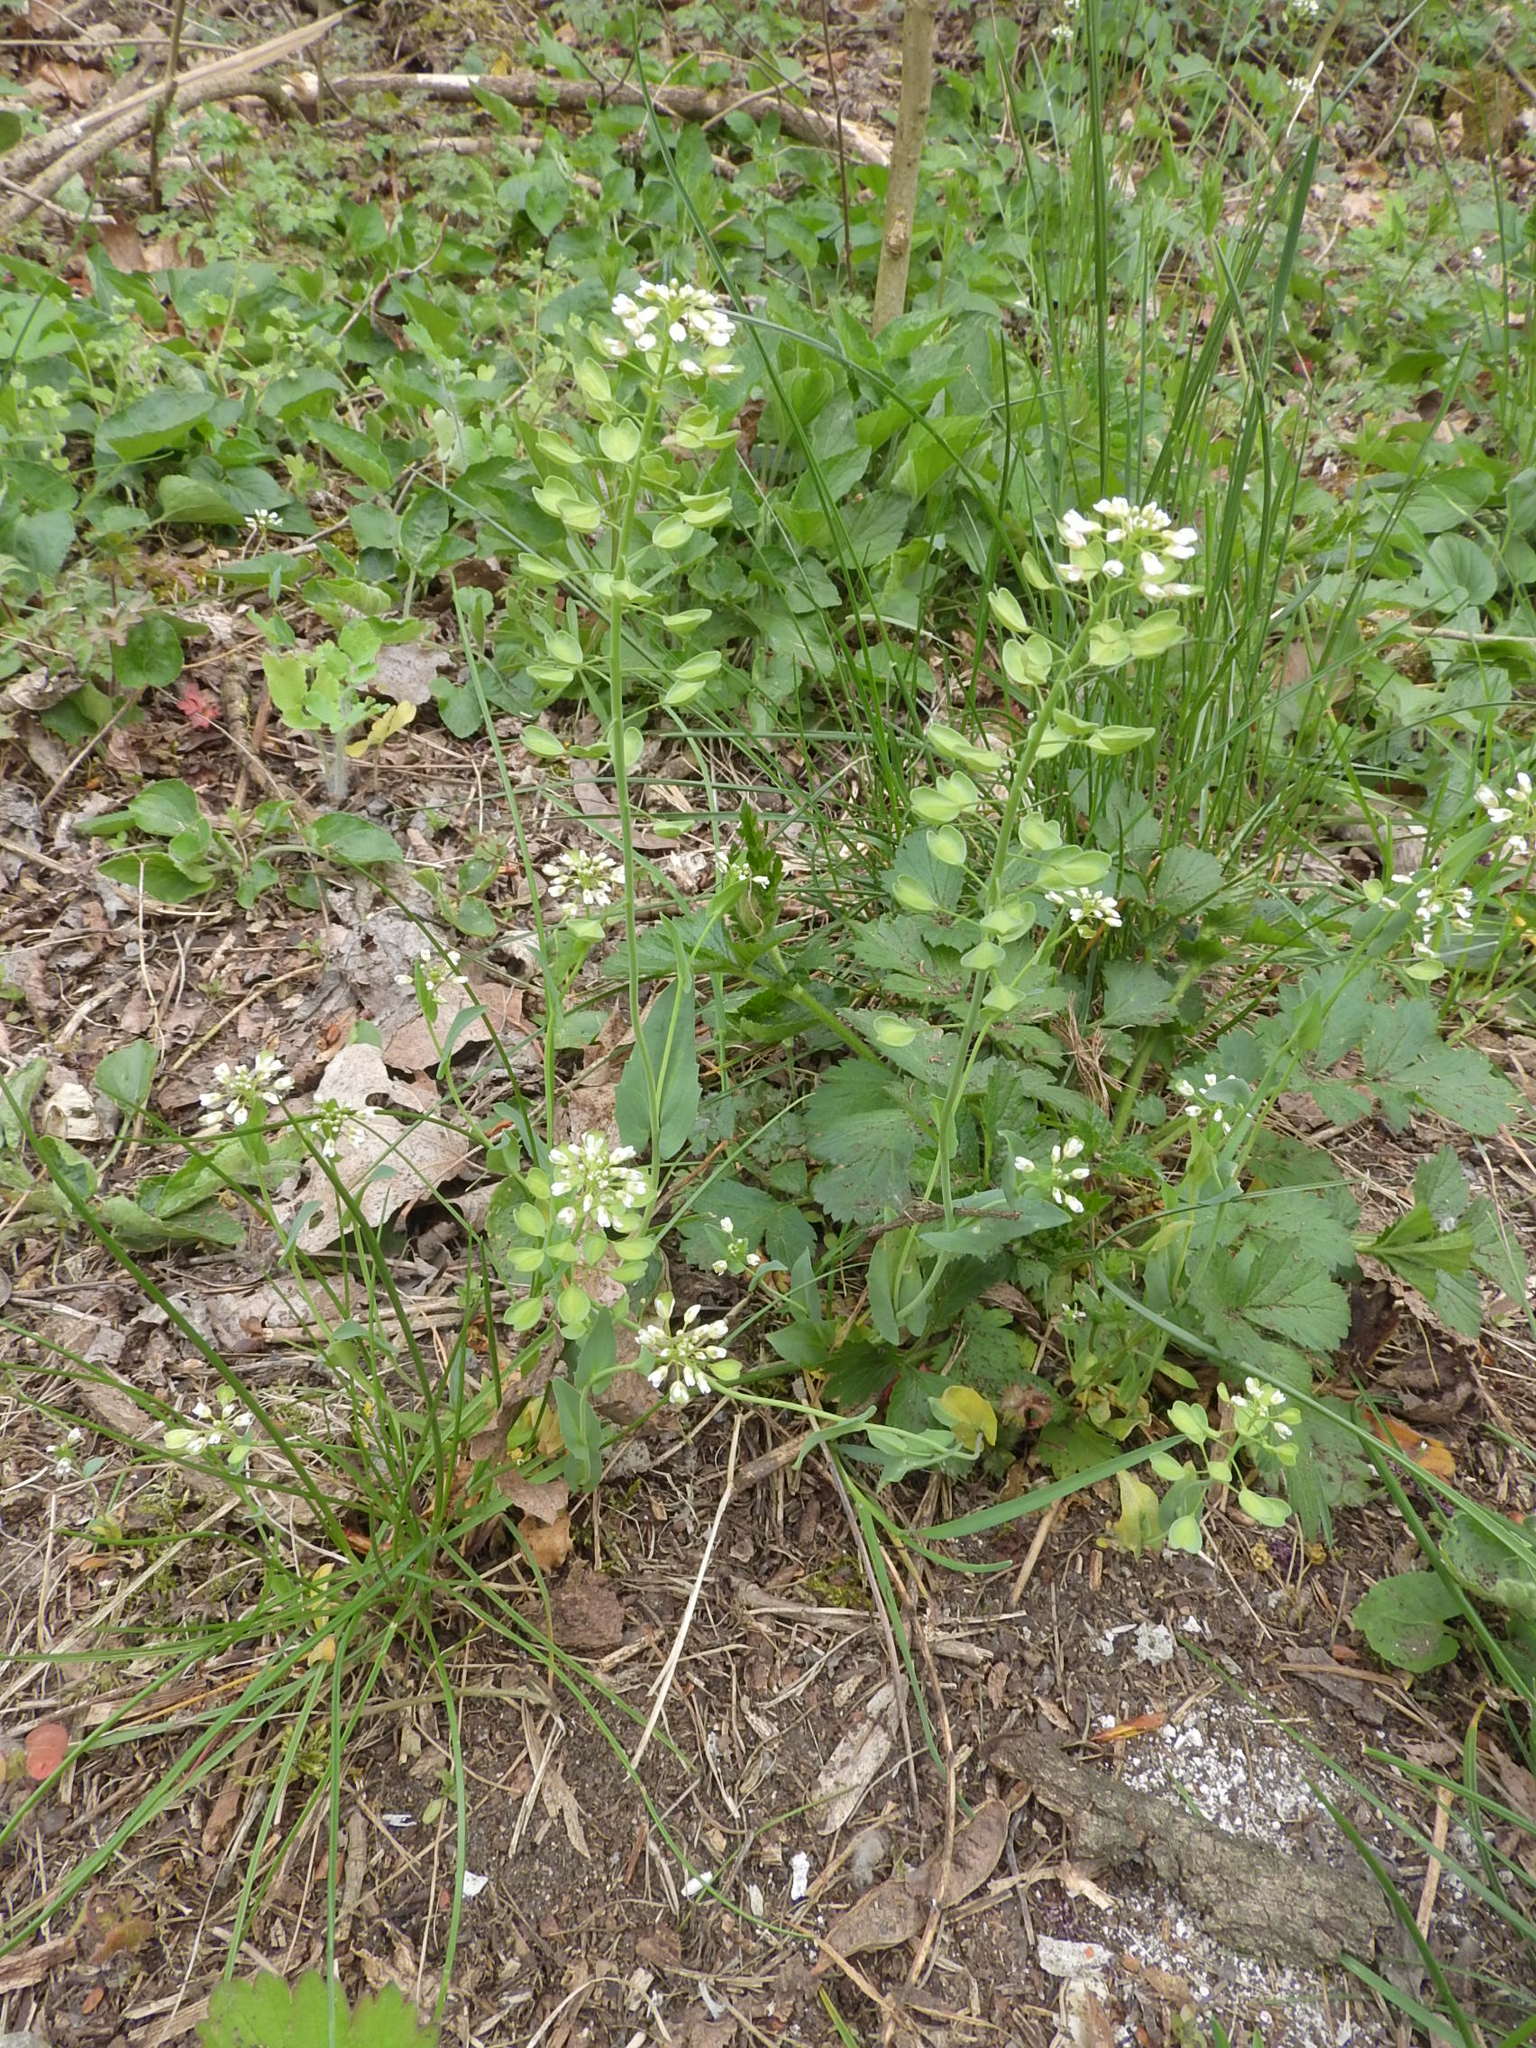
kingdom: Plantae
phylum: Tracheophyta
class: Magnoliopsida
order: Brassicales
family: Brassicaceae
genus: Noccaea
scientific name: Noccaea perfoliata
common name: Perfoliate pennycress
